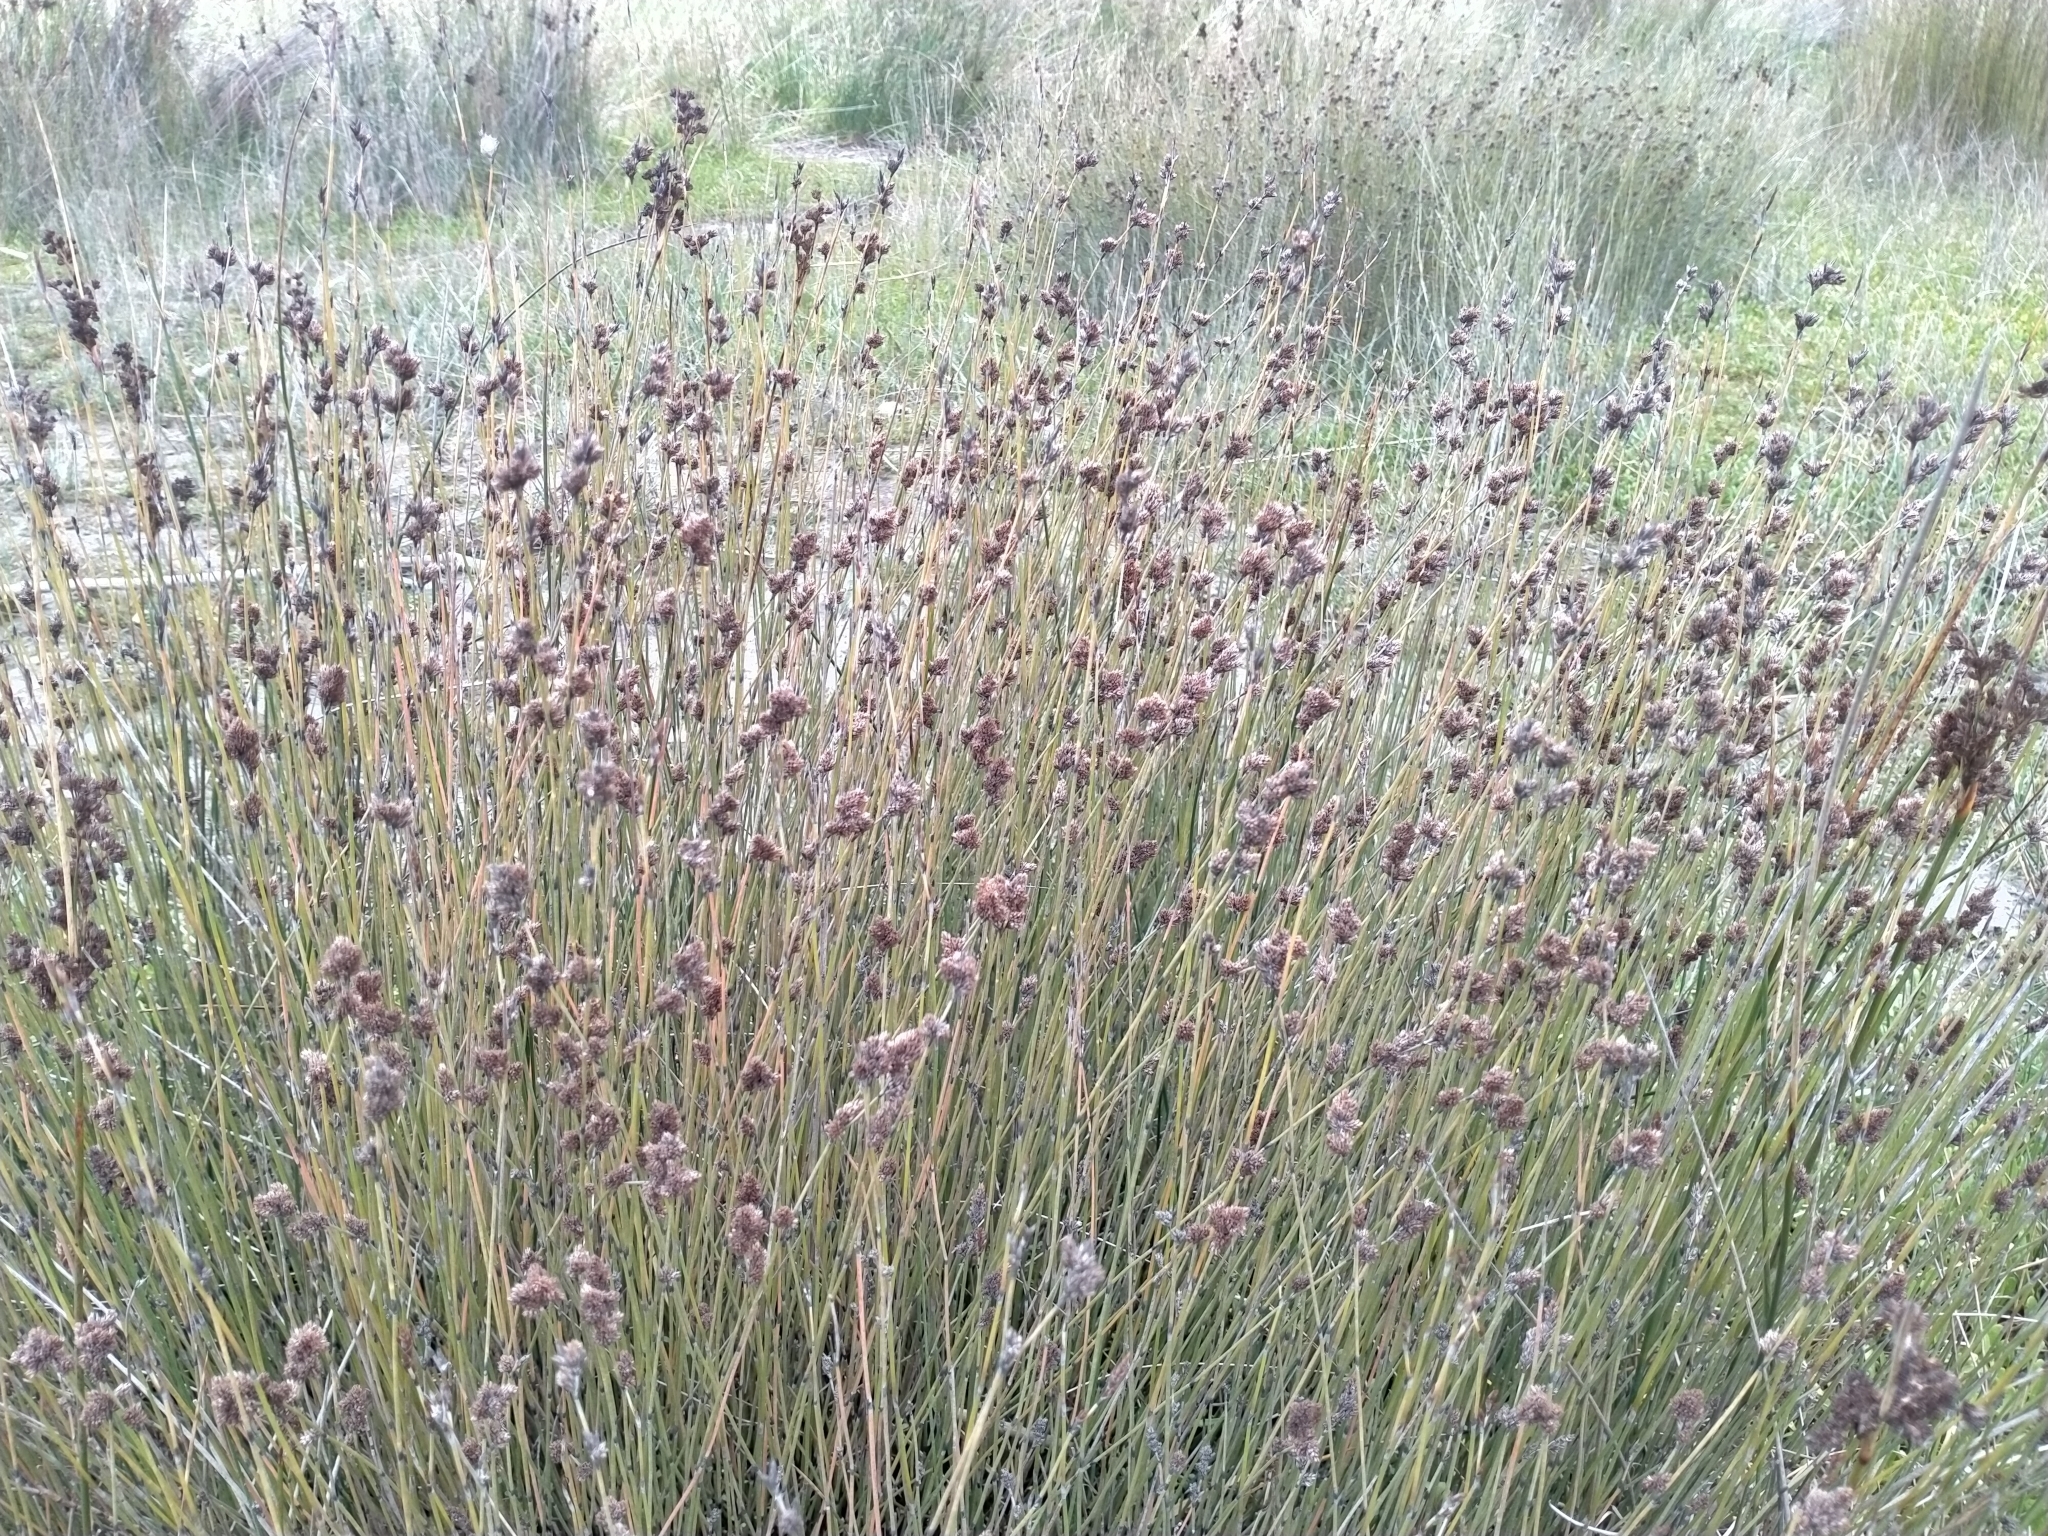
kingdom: Plantae
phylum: Tracheophyta
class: Liliopsida
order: Poales
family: Restionaceae
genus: Apodasmia
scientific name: Apodasmia similis
